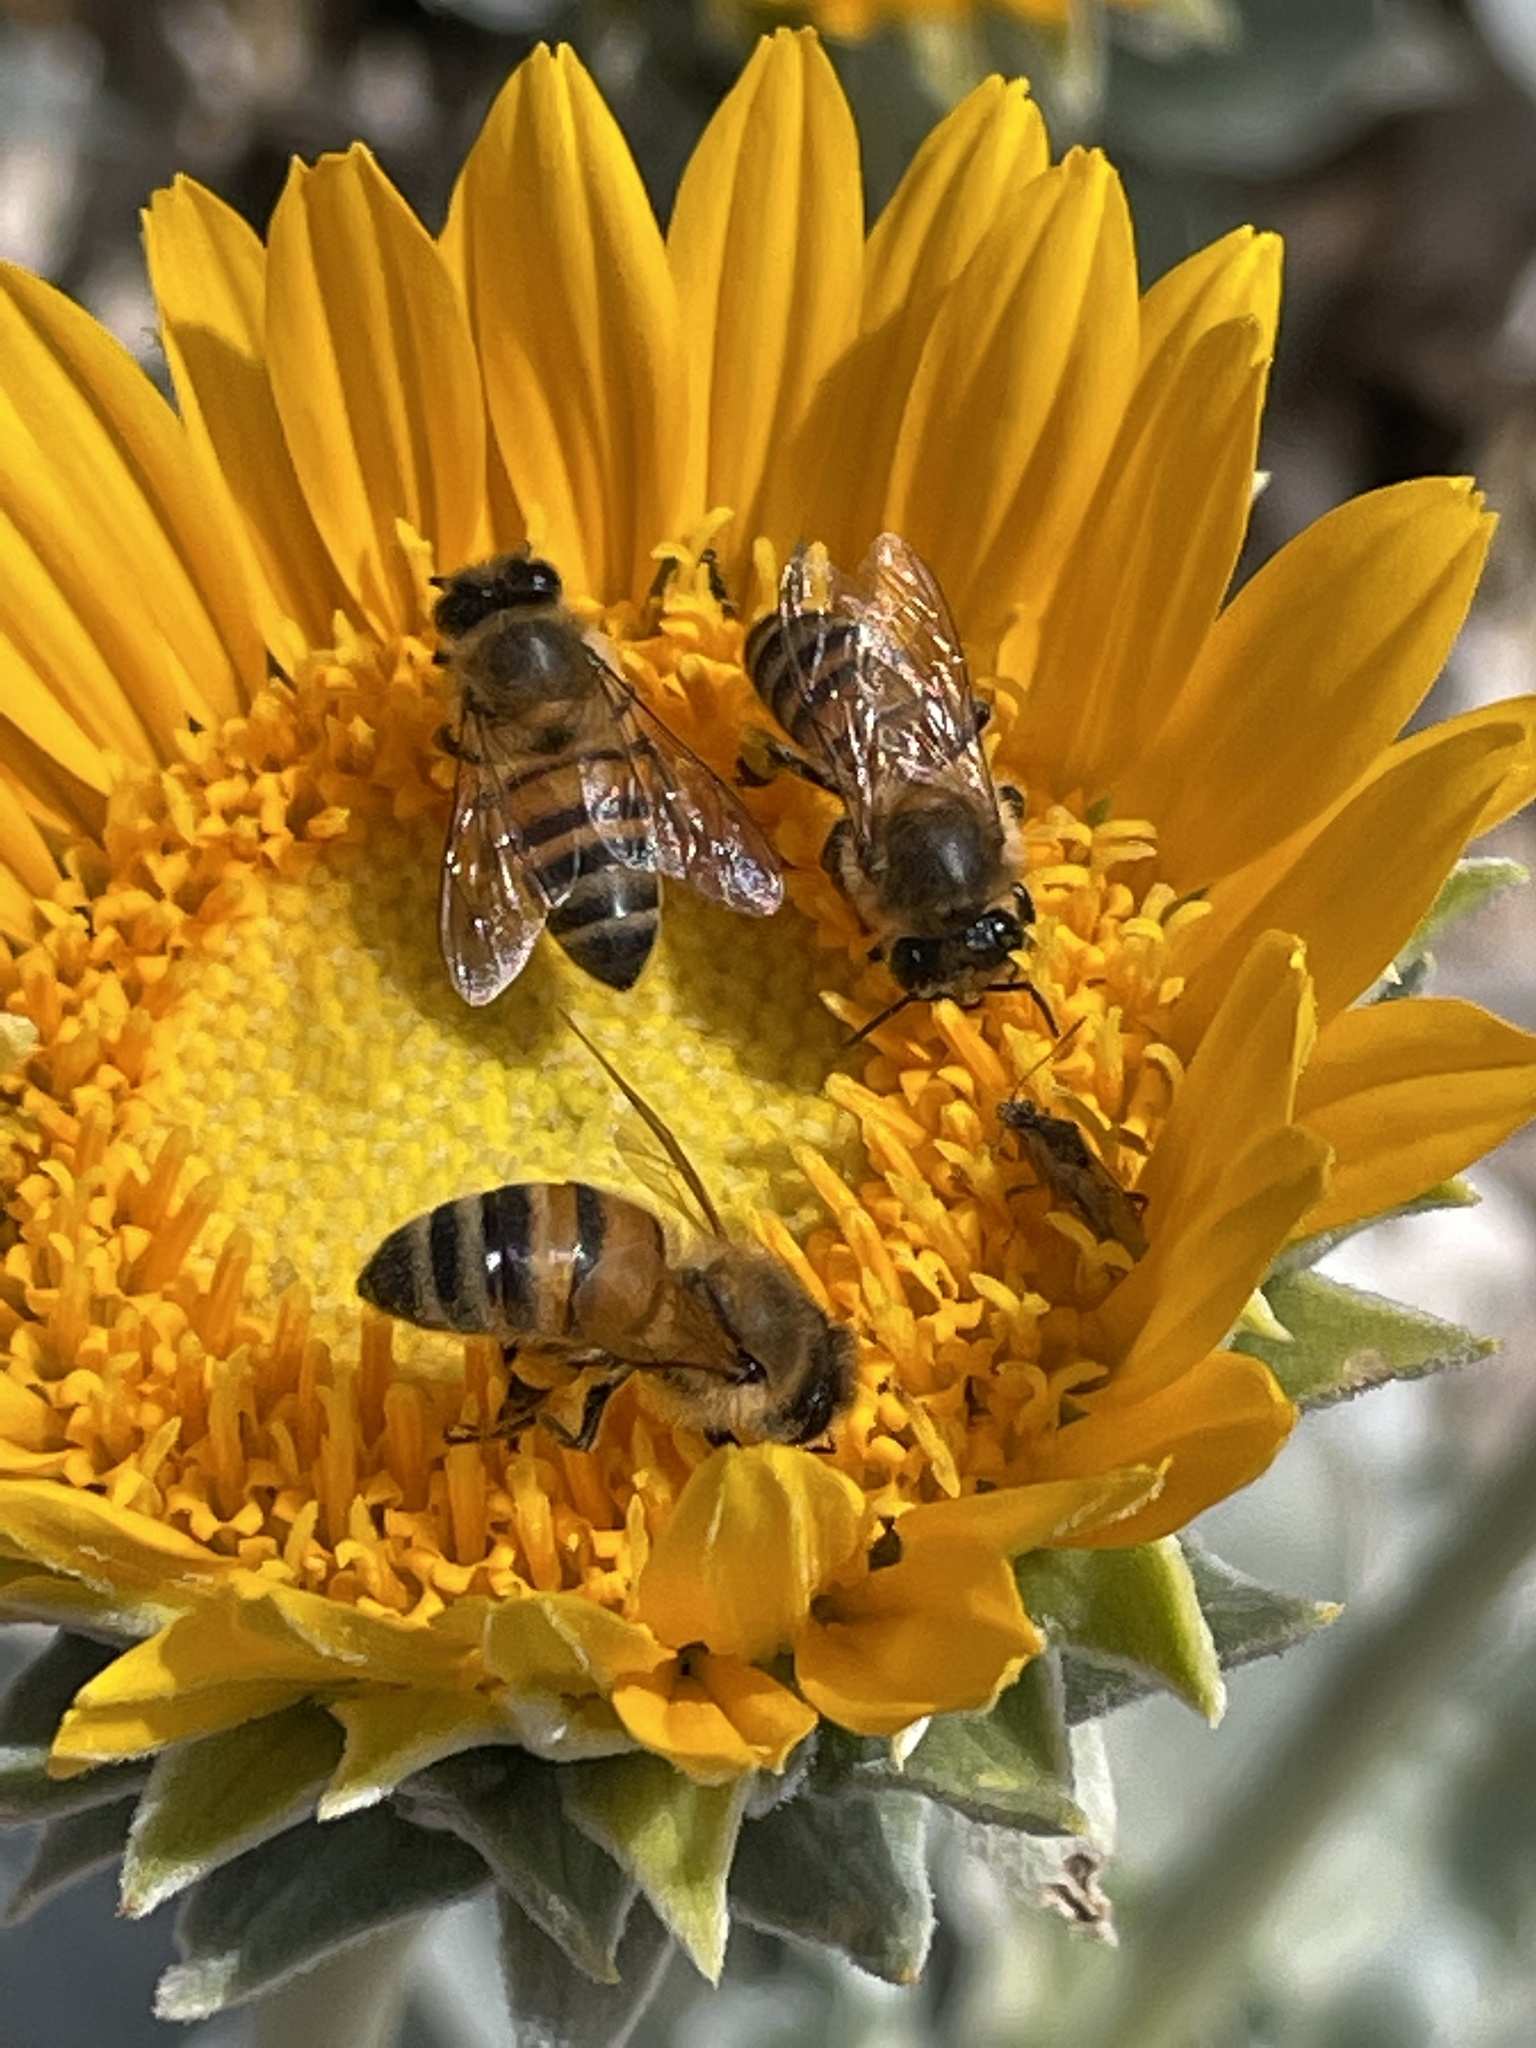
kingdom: Animalia
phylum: Arthropoda
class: Insecta
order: Hymenoptera
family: Apidae
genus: Apis
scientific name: Apis mellifera
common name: Honey bee
